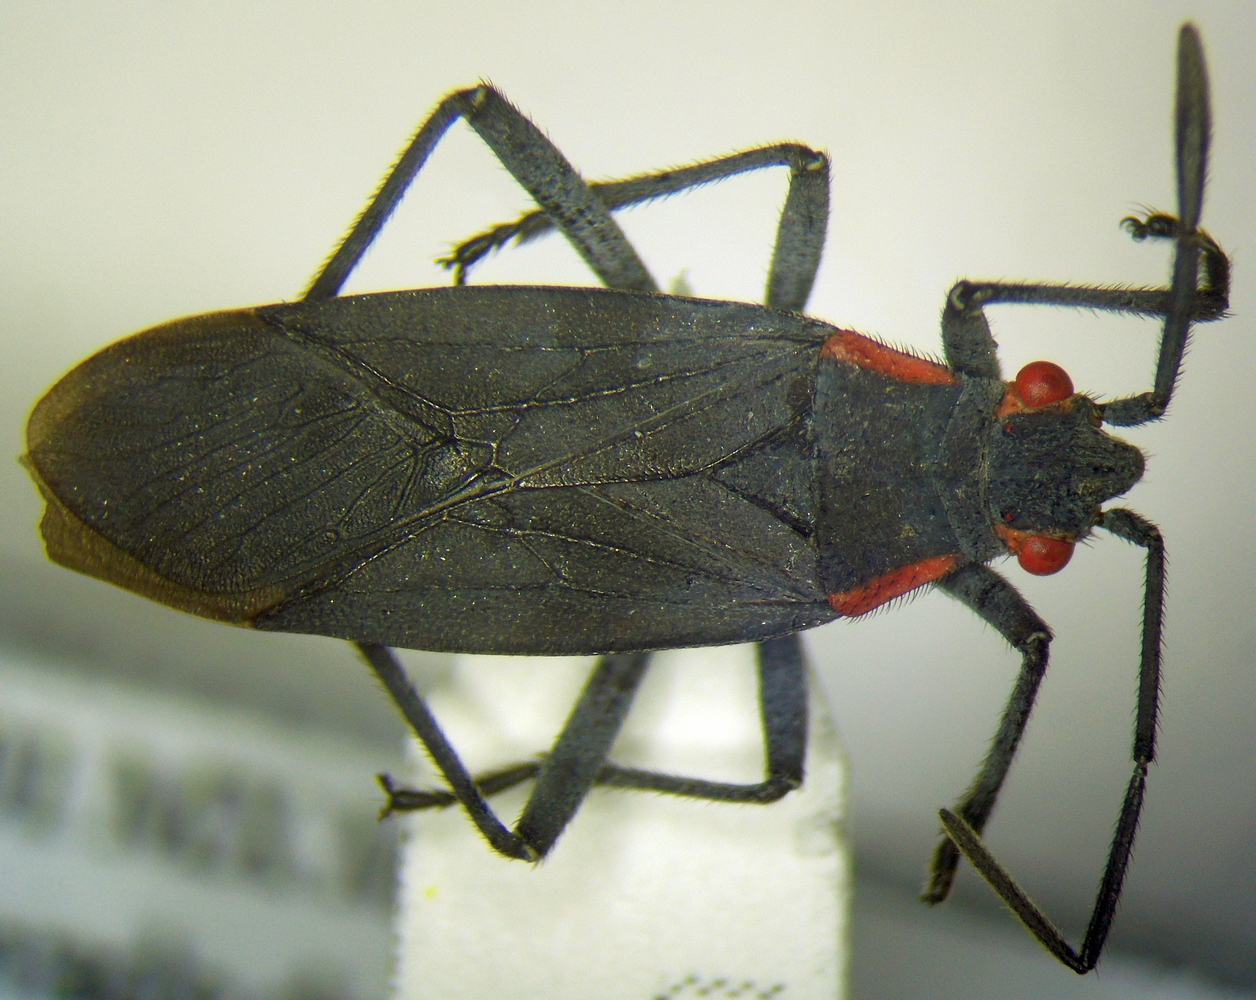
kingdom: Animalia
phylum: Arthropoda
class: Insecta
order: Hemiptera
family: Rhopalidae
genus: Jadera
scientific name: Jadera haematoloma
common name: Red-shouldered bug
